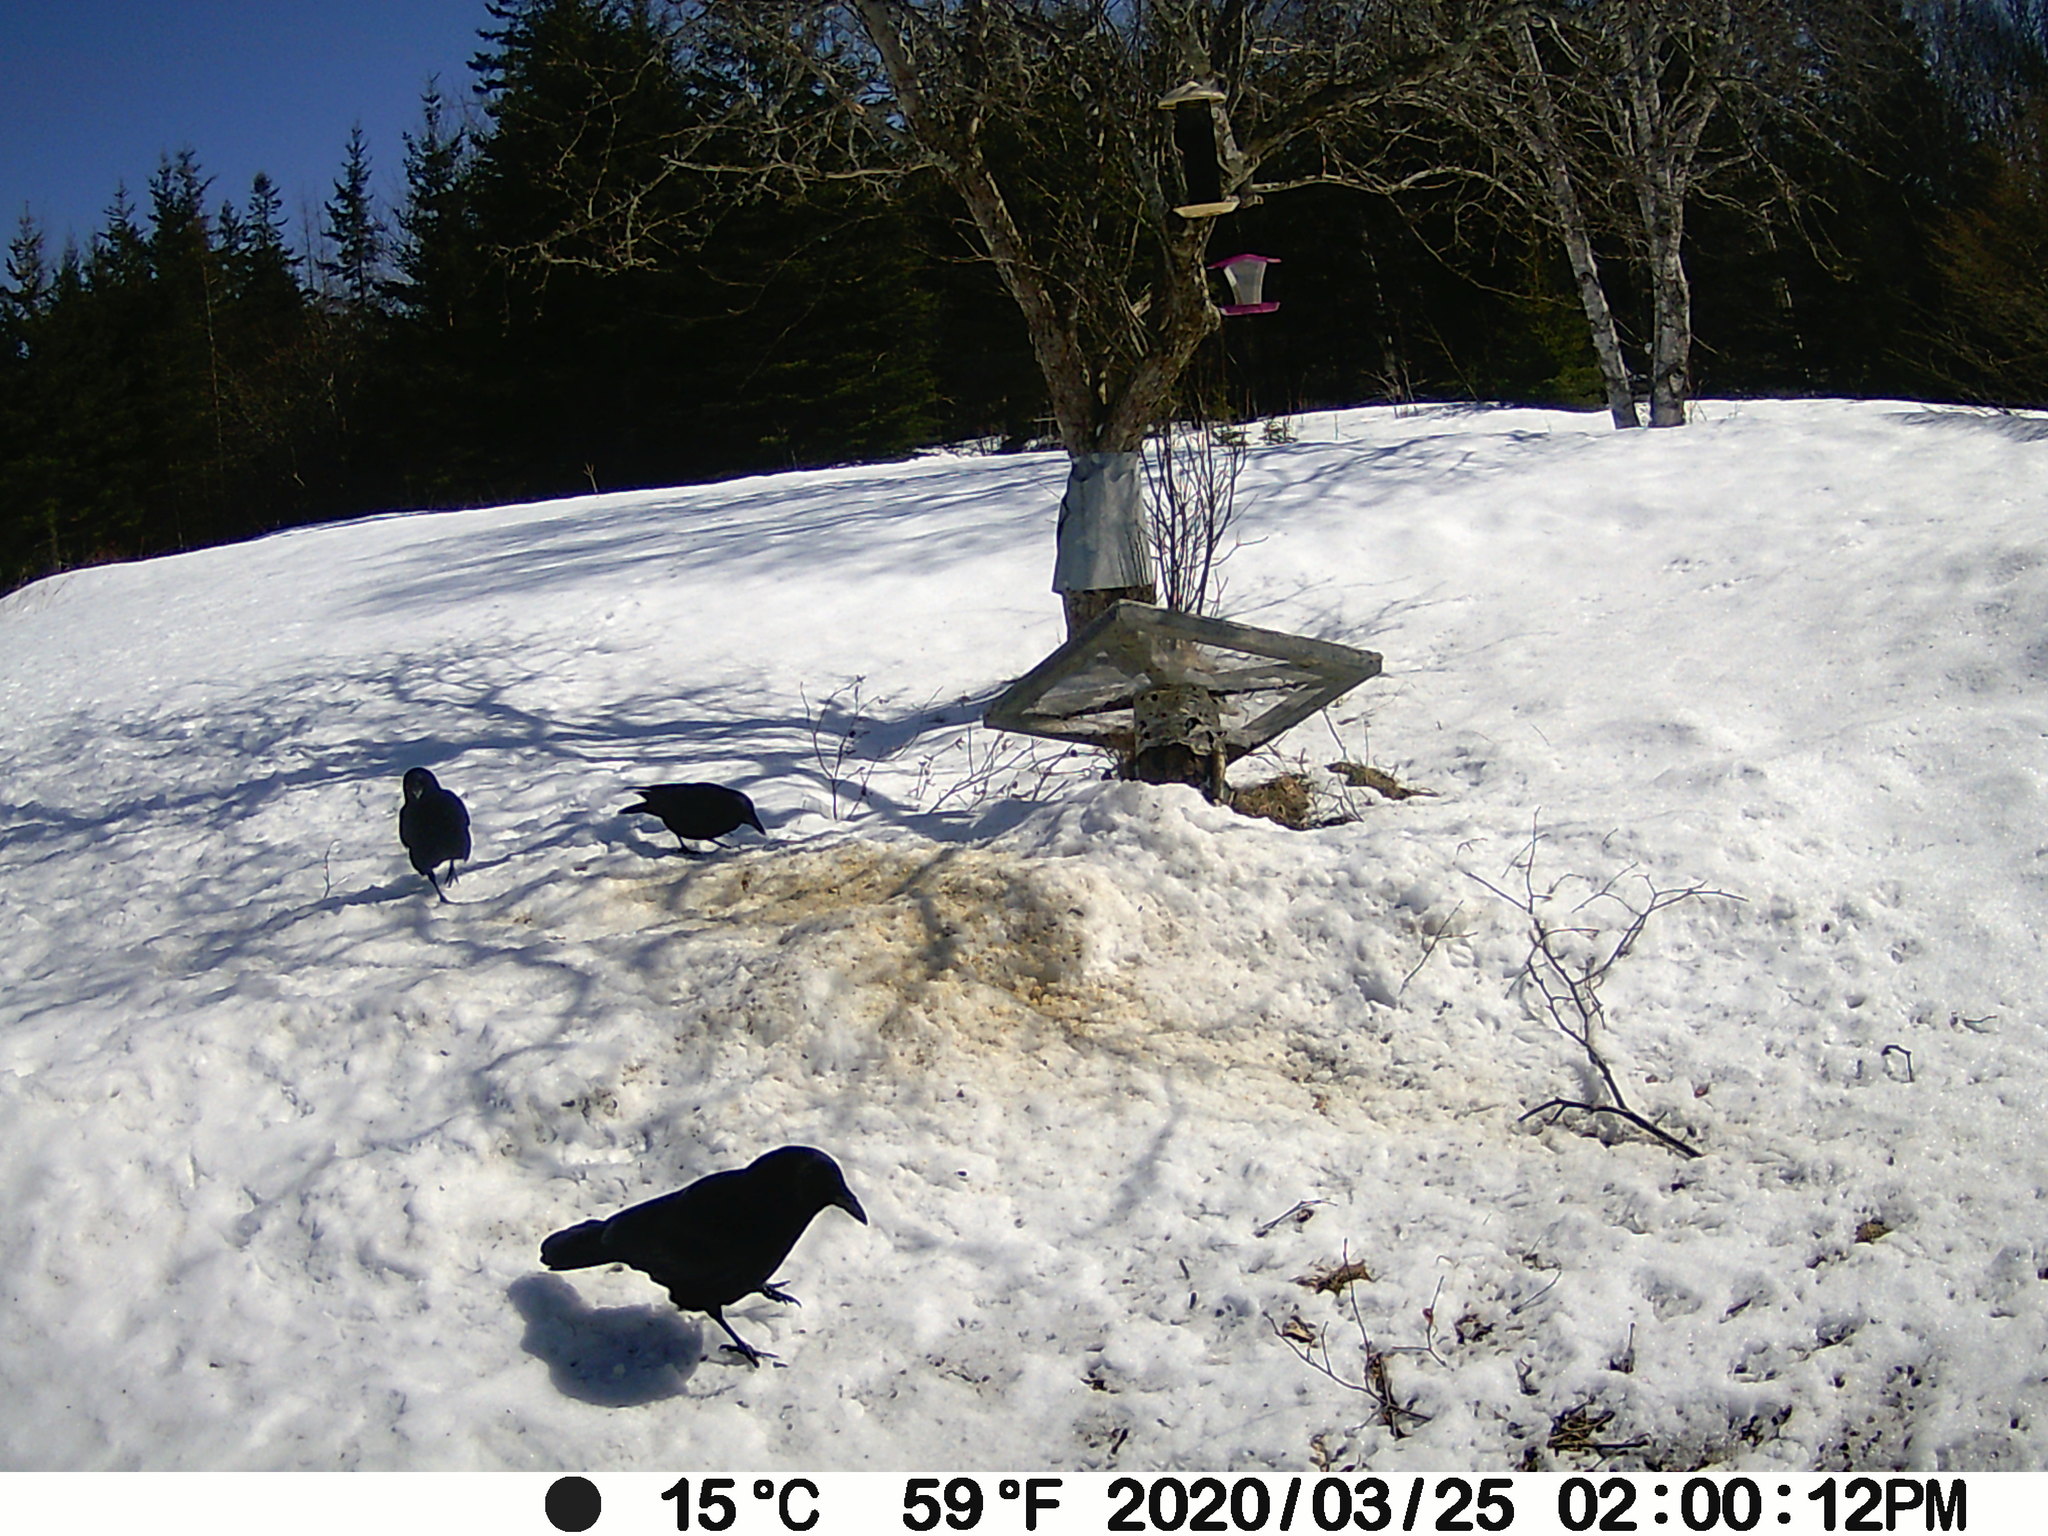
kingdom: Animalia
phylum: Chordata
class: Aves
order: Passeriformes
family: Corvidae
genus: Corvus
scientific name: Corvus brachyrhynchos
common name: American crow
